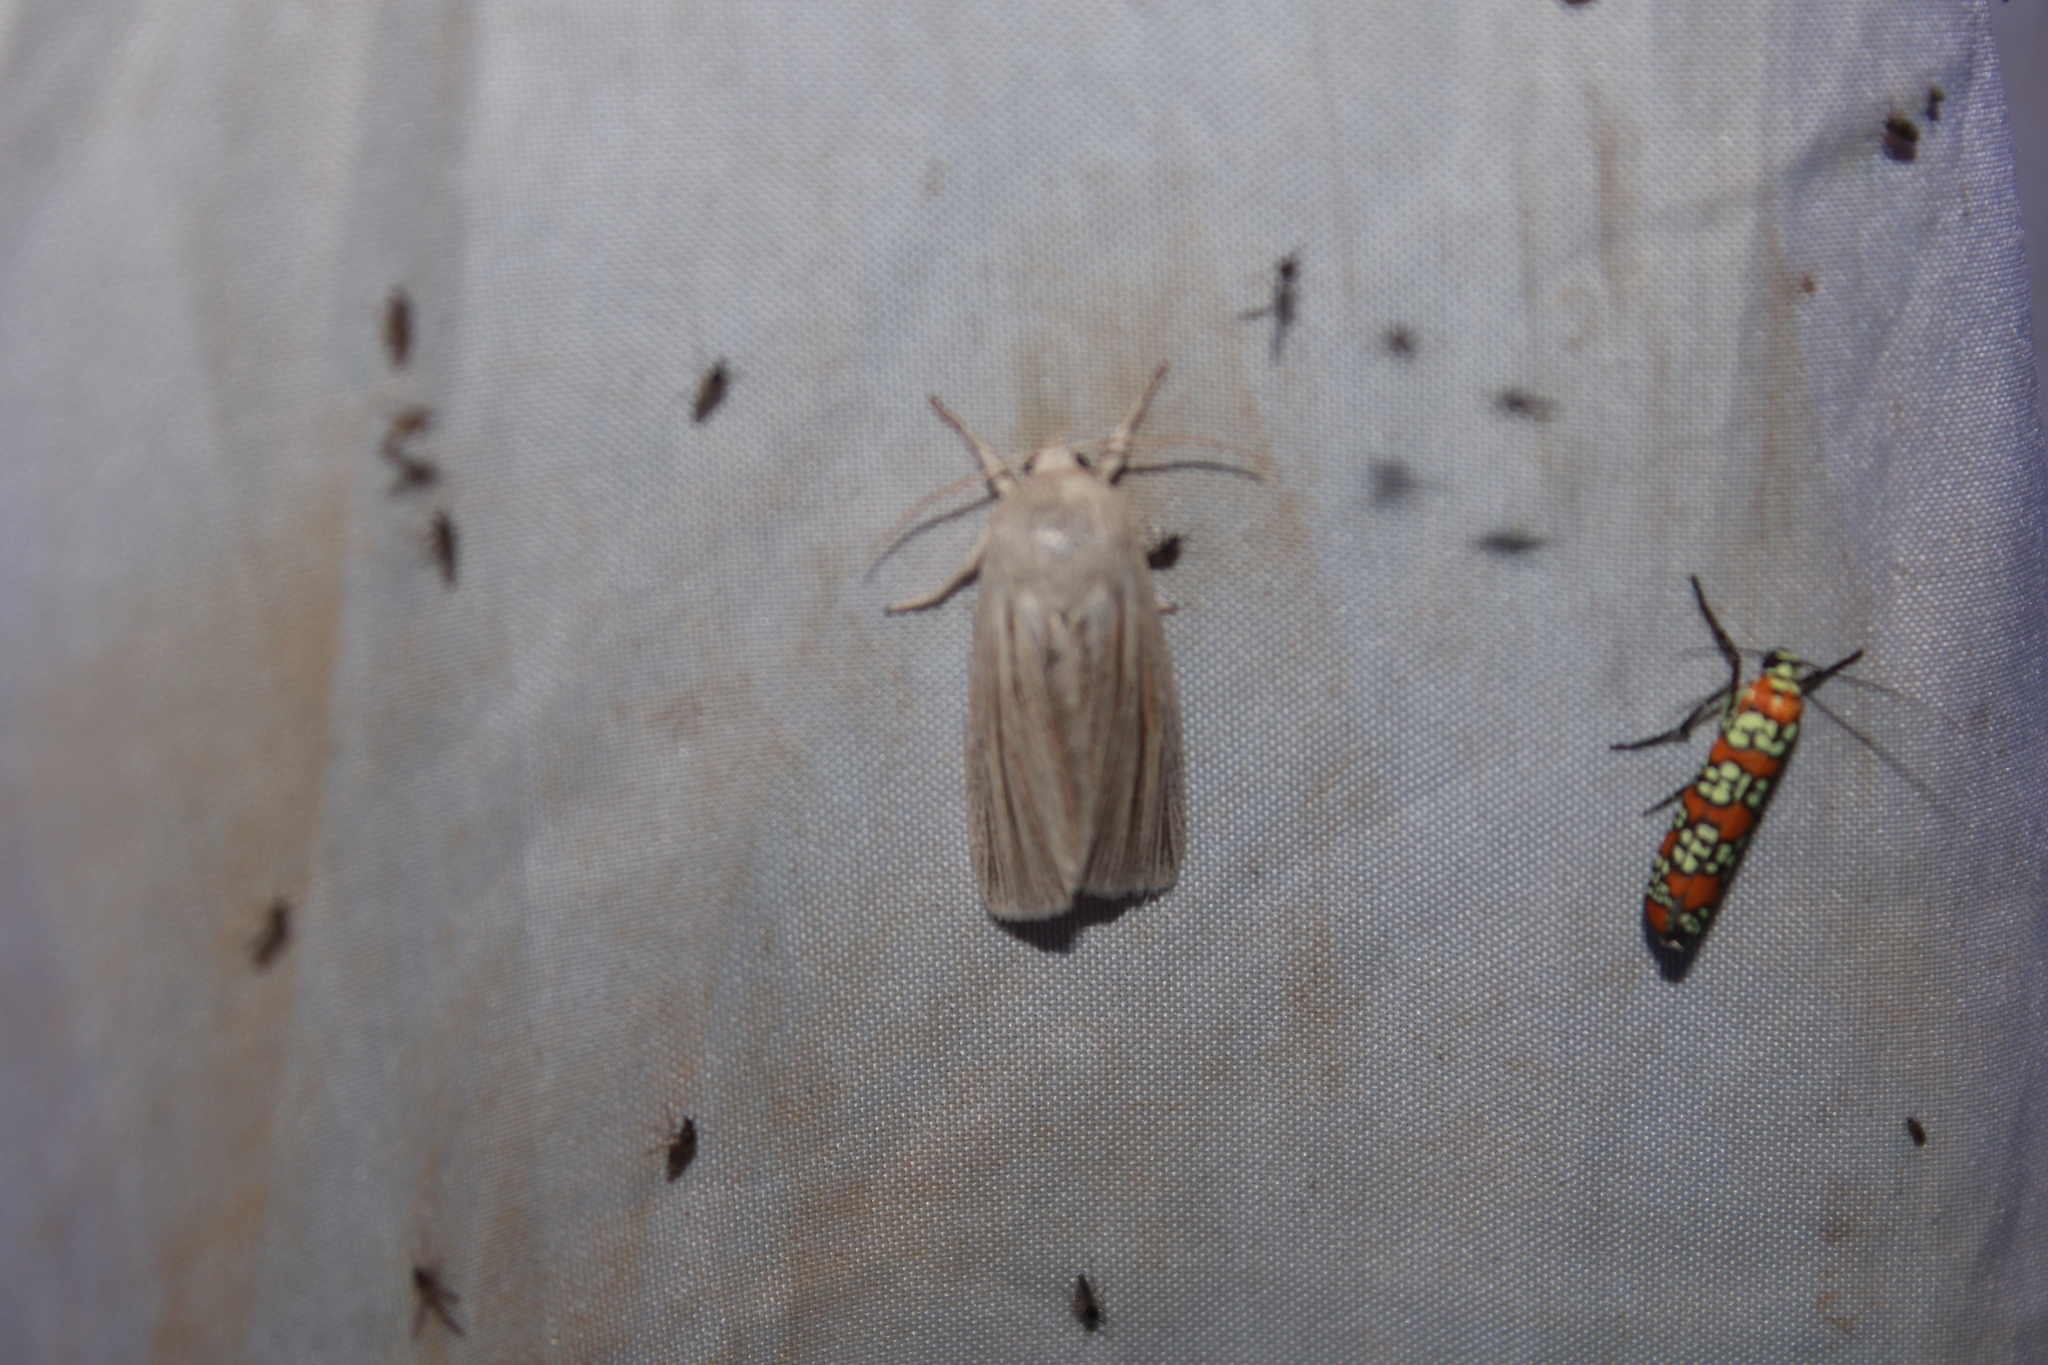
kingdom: Animalia
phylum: Arthropoda
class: Insecta
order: Lepidoptera
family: Noctuidae
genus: Acronicta
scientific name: Acronicta insularis
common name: Henry's marsh moth
